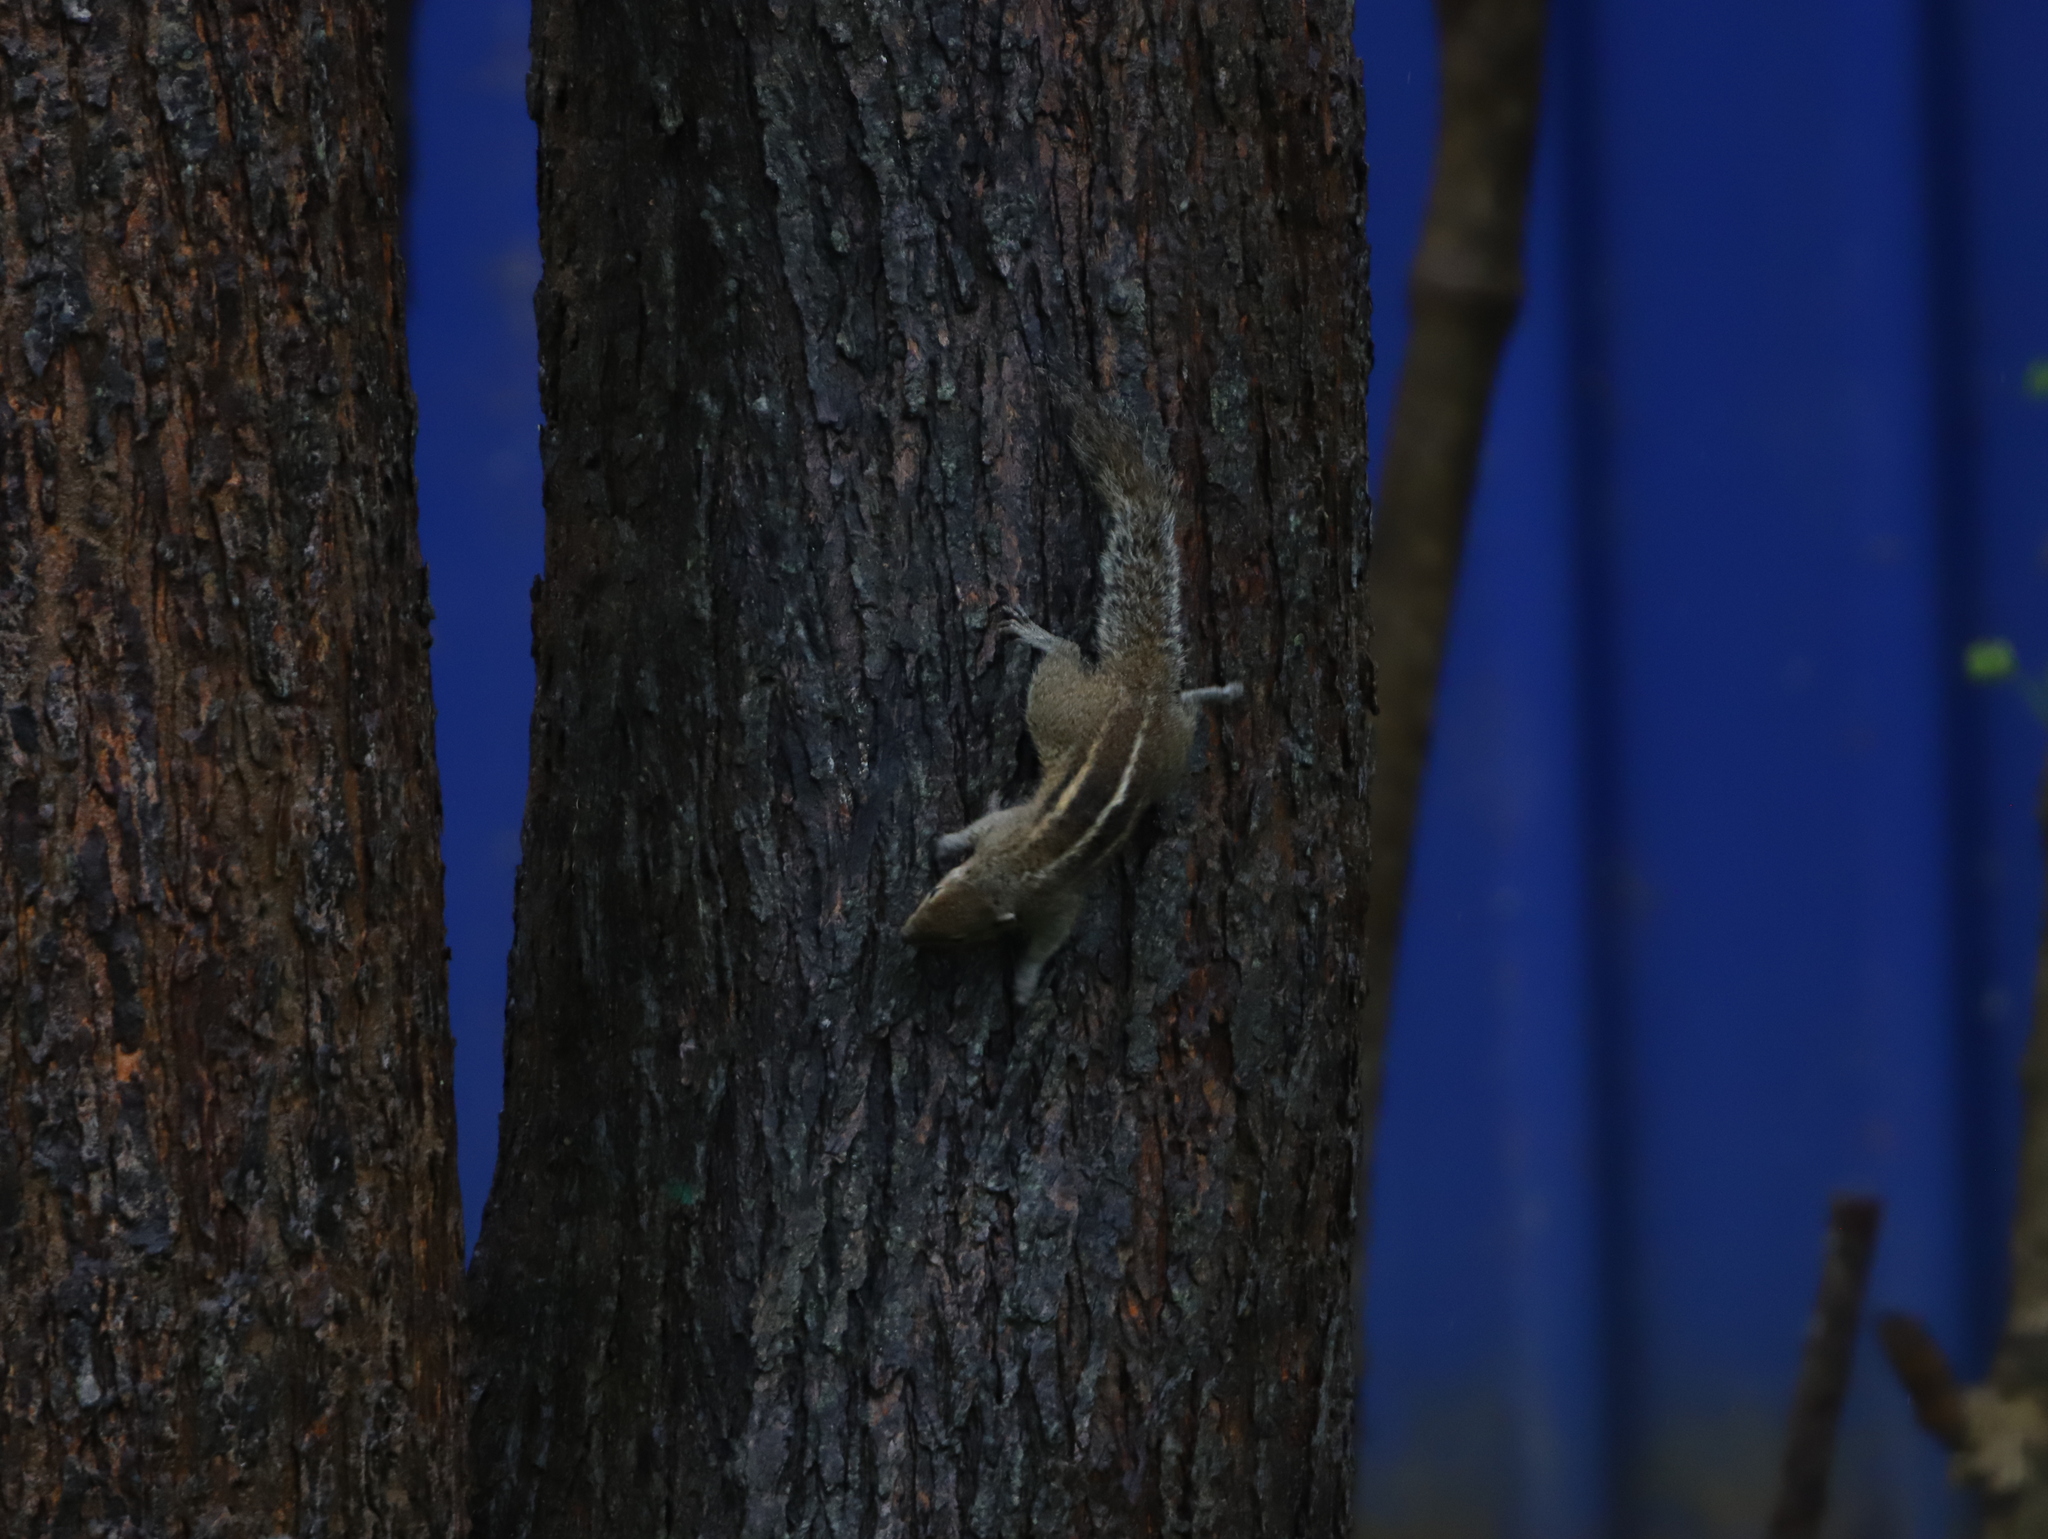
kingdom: Animalia
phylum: Chordata
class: Mammalia
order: Rodentia
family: Sciuridae
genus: Funambulus
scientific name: Funambulus palmarum
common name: Indian palm squirrel
